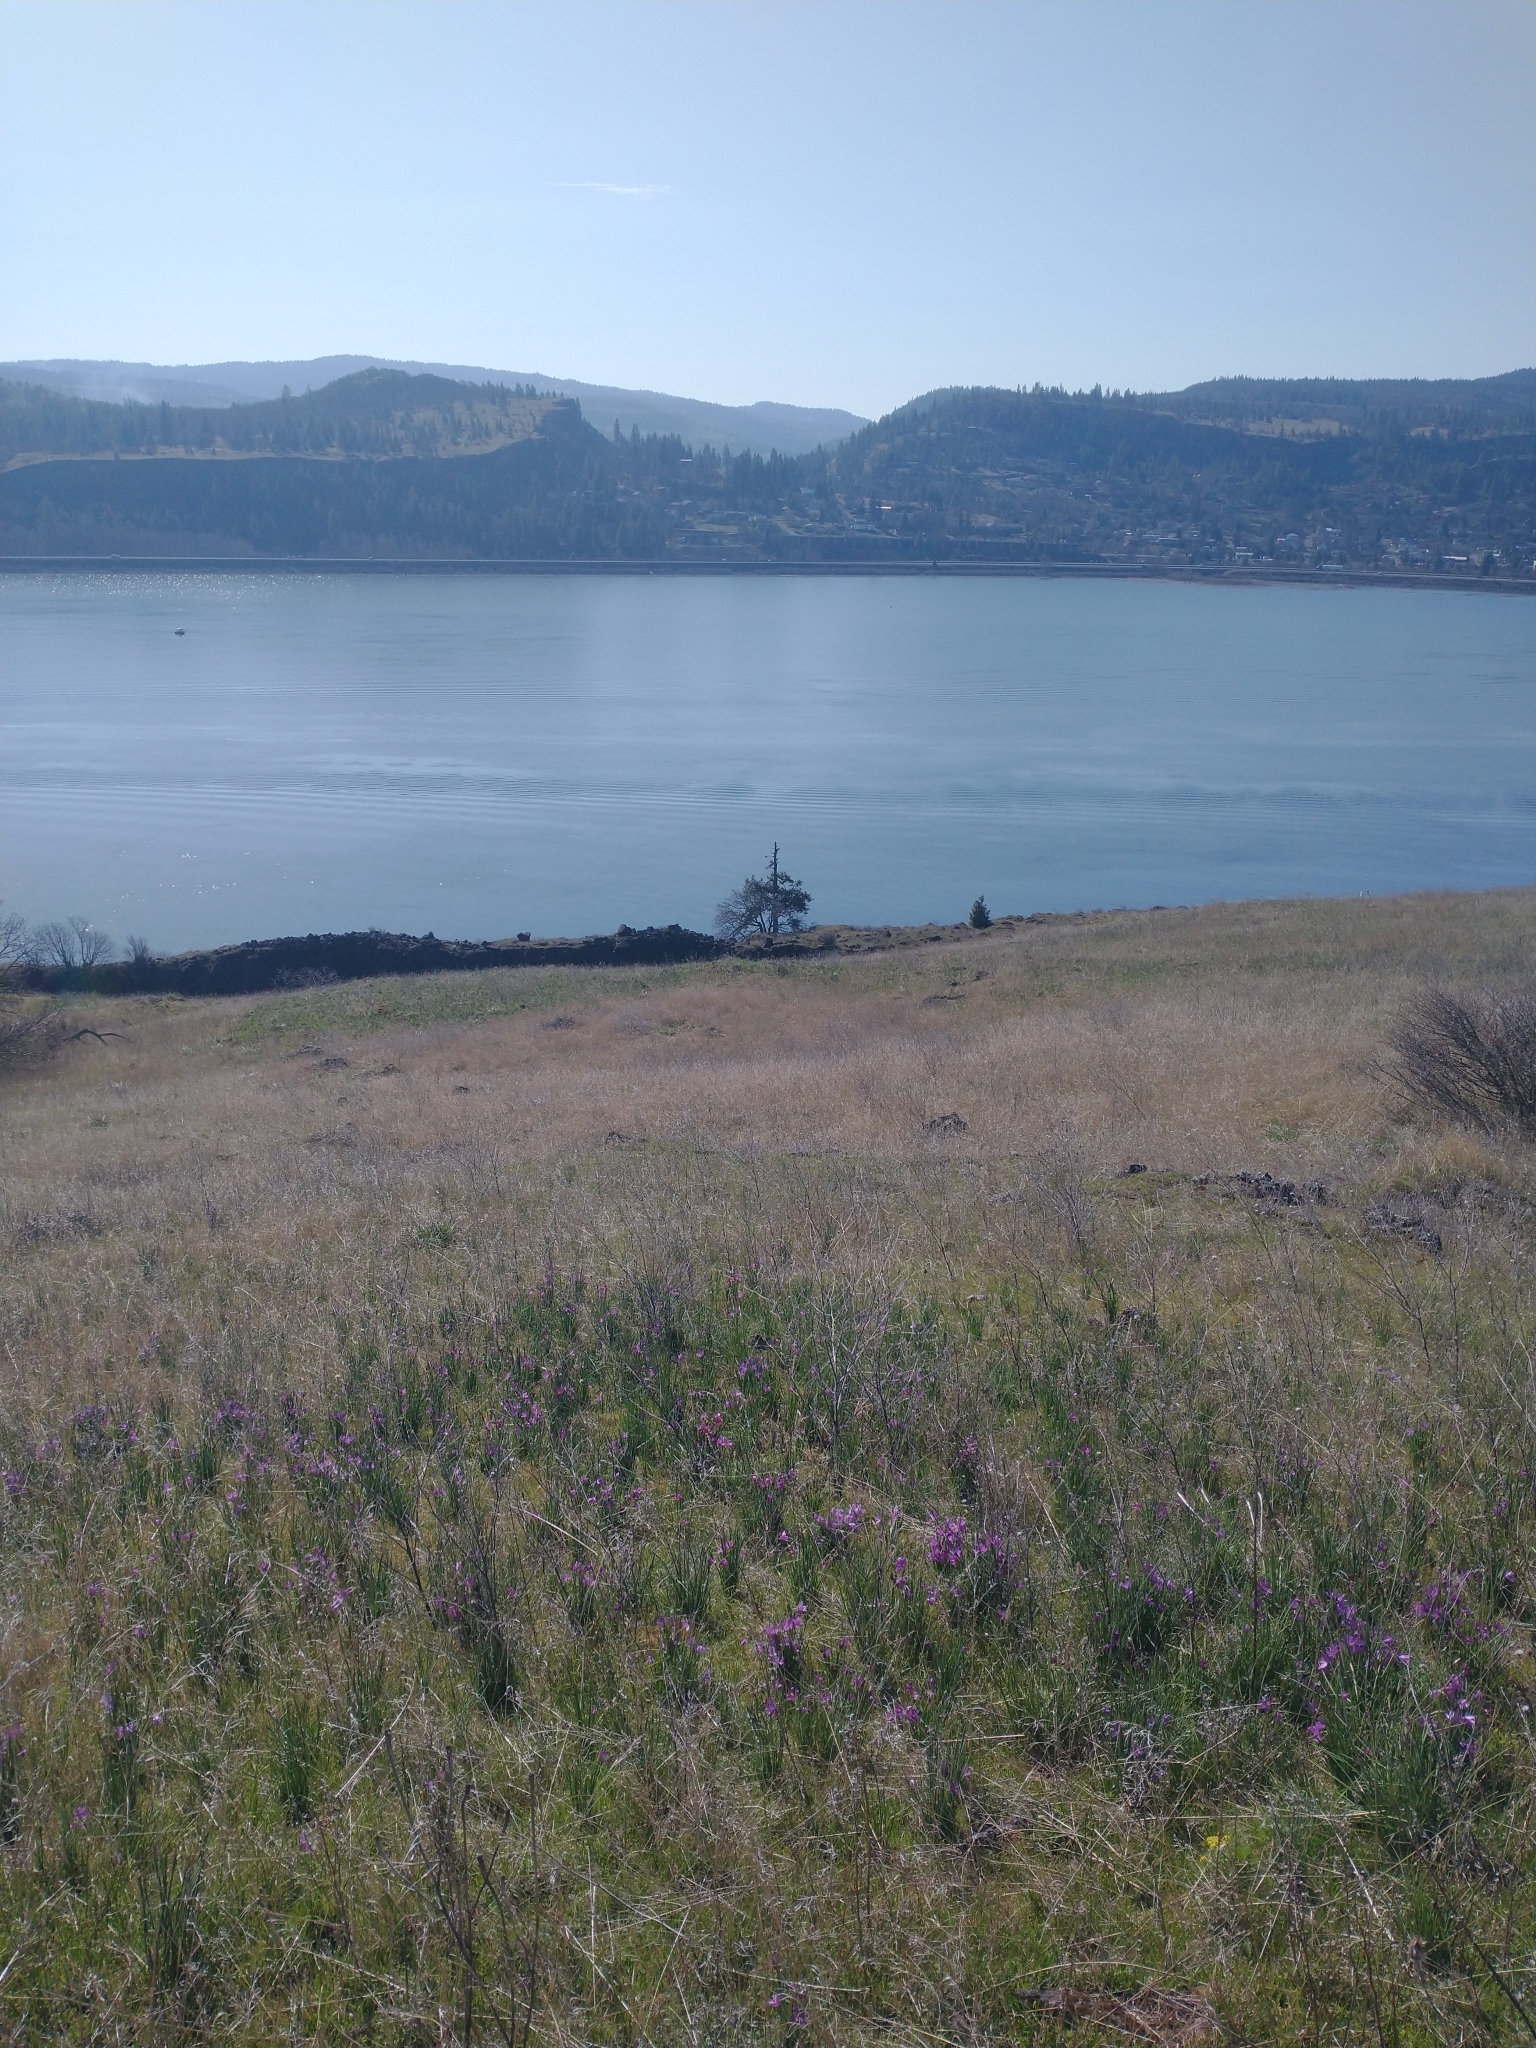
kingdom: Plantae
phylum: Tracheophyta
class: Liliopsida
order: Asparagales
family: Iridaceae
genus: Olsynium
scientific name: Olsynium douglasii
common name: Douglas' grasswidow
